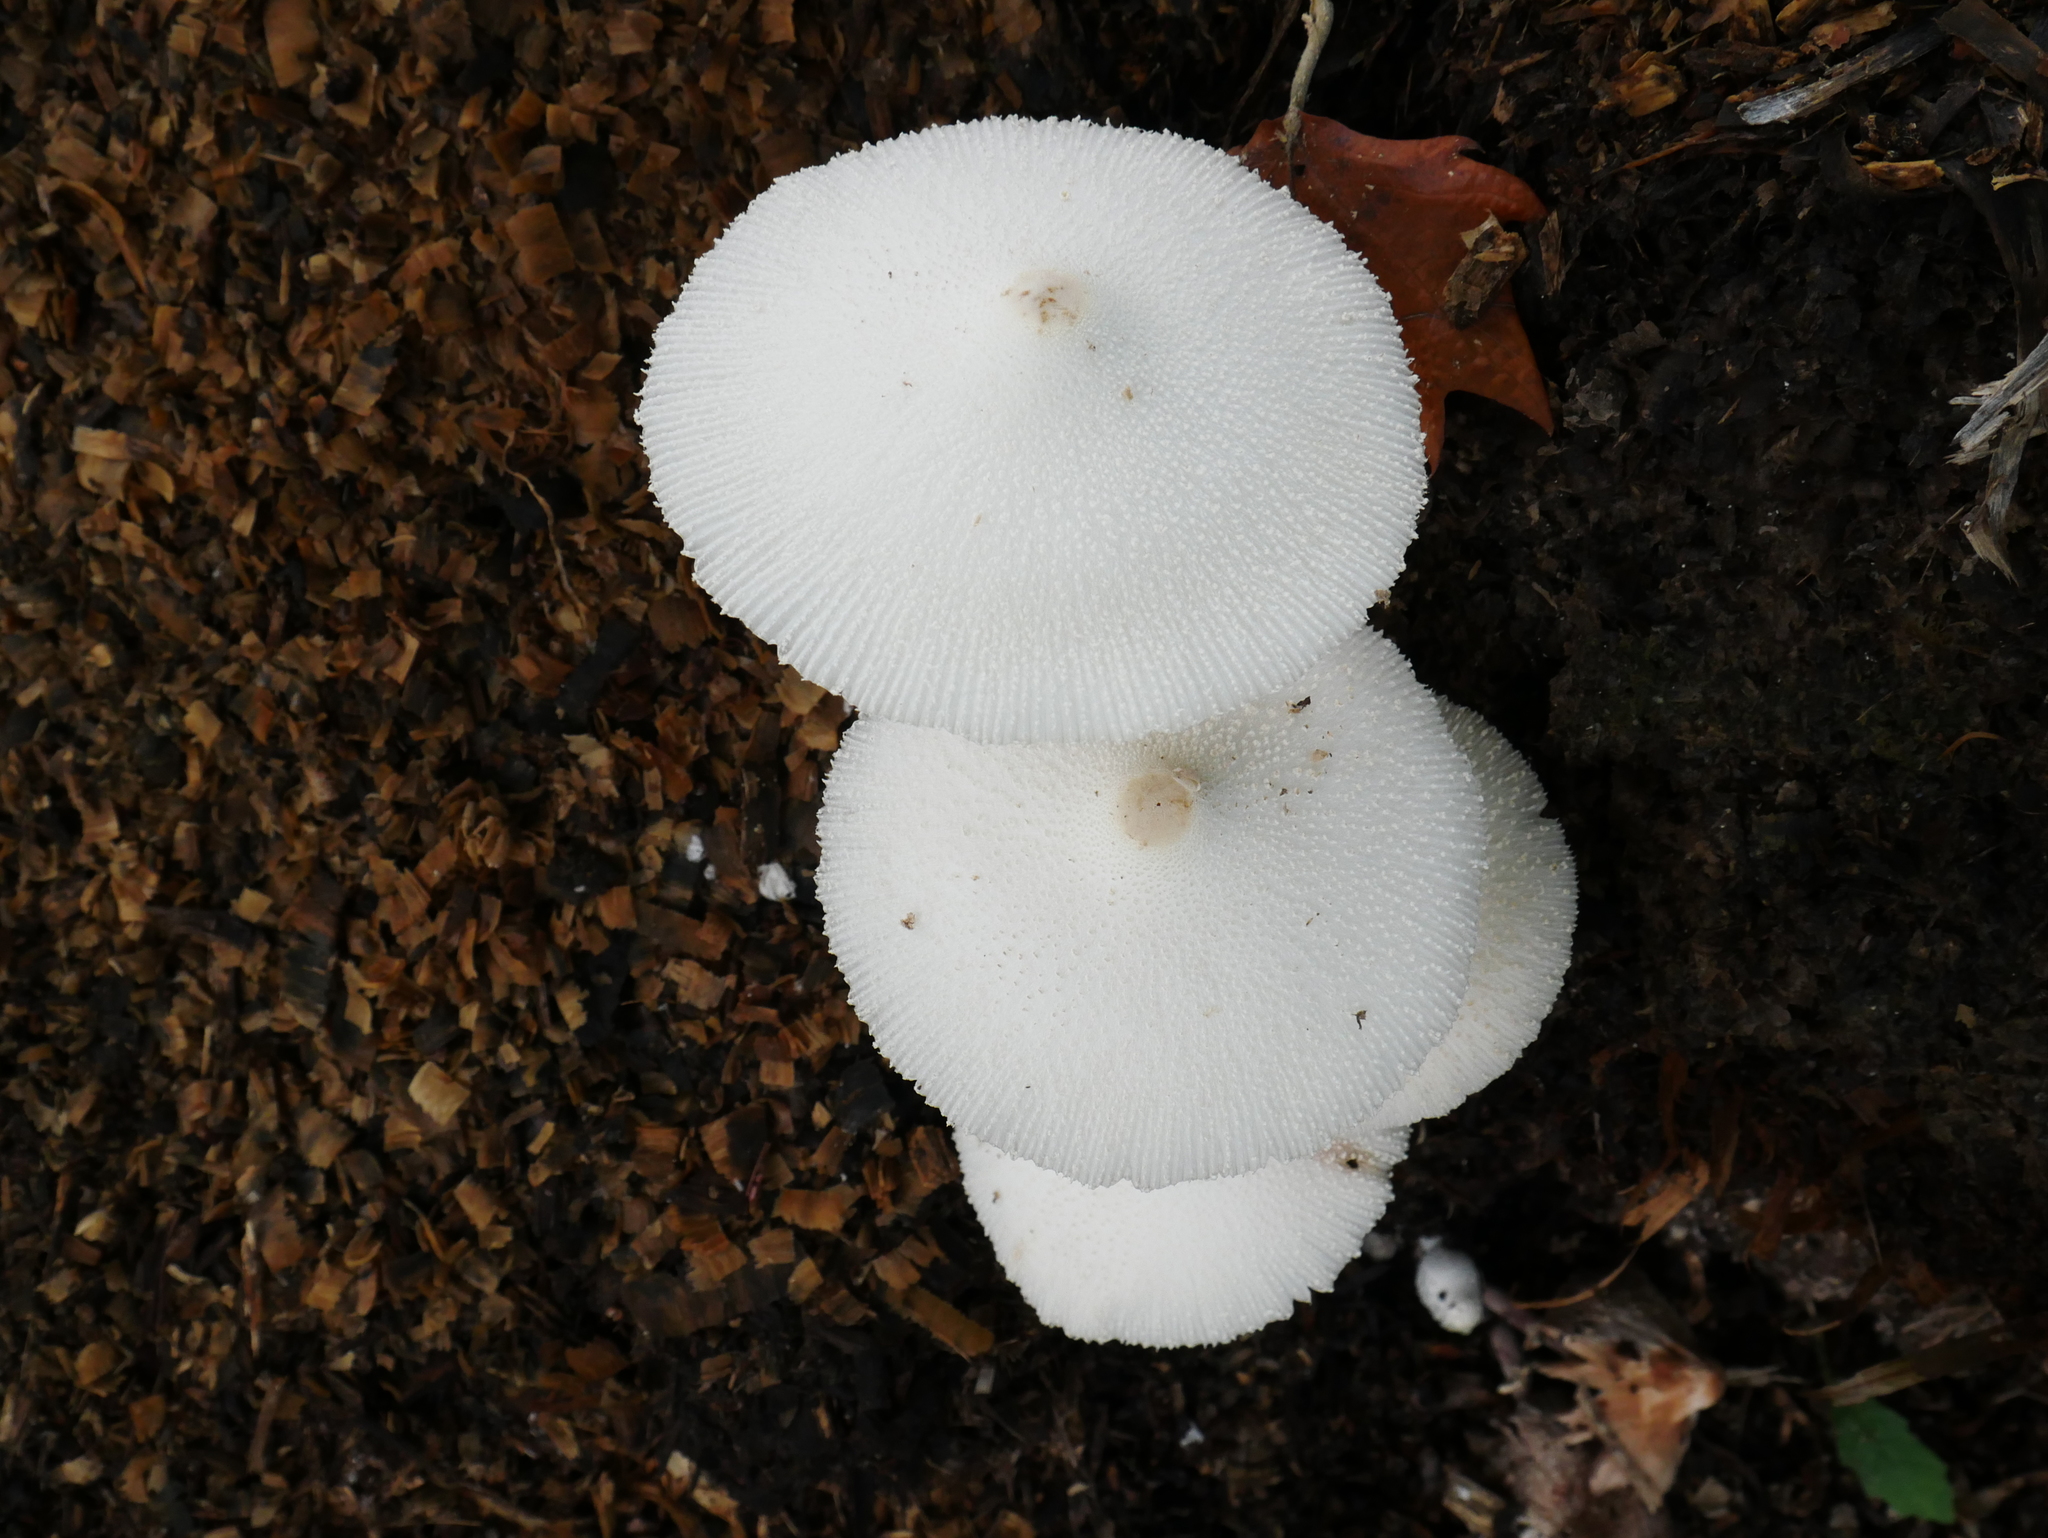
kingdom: Fungi
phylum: Basidiomycota
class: Agaricomycetes
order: Agaricales
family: Agaricaceae
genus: Leucocoprinus
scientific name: Leucocoprinus cepistipes
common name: Onion-stalk parasol
